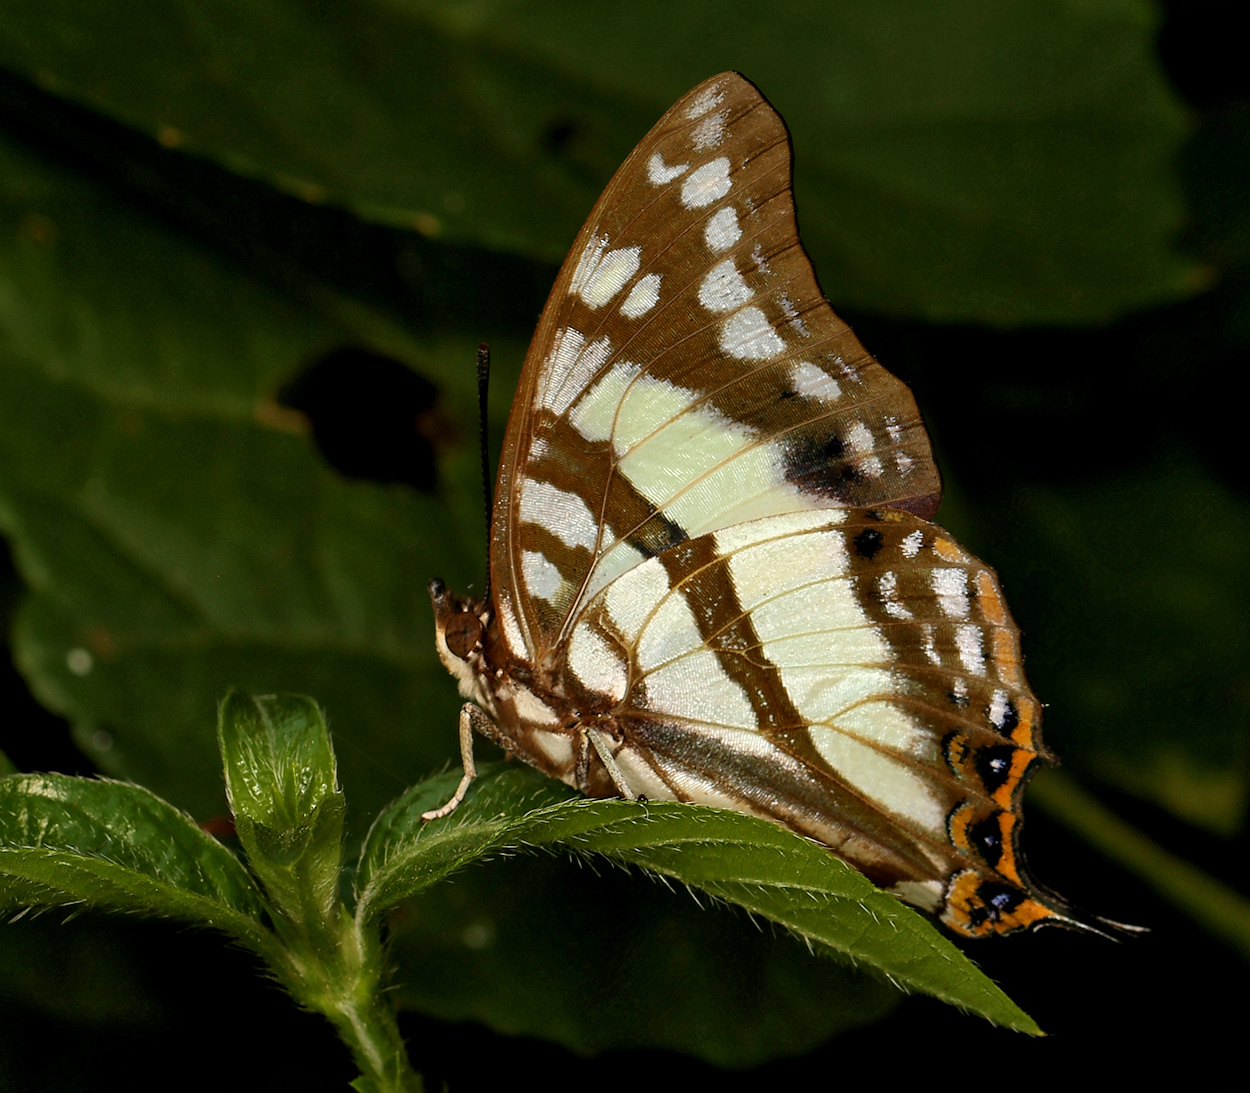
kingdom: Animalia
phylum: Arthropoda
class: Insecta
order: Lepidoptera
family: Nymphalidae
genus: Polyura
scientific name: Polyura
